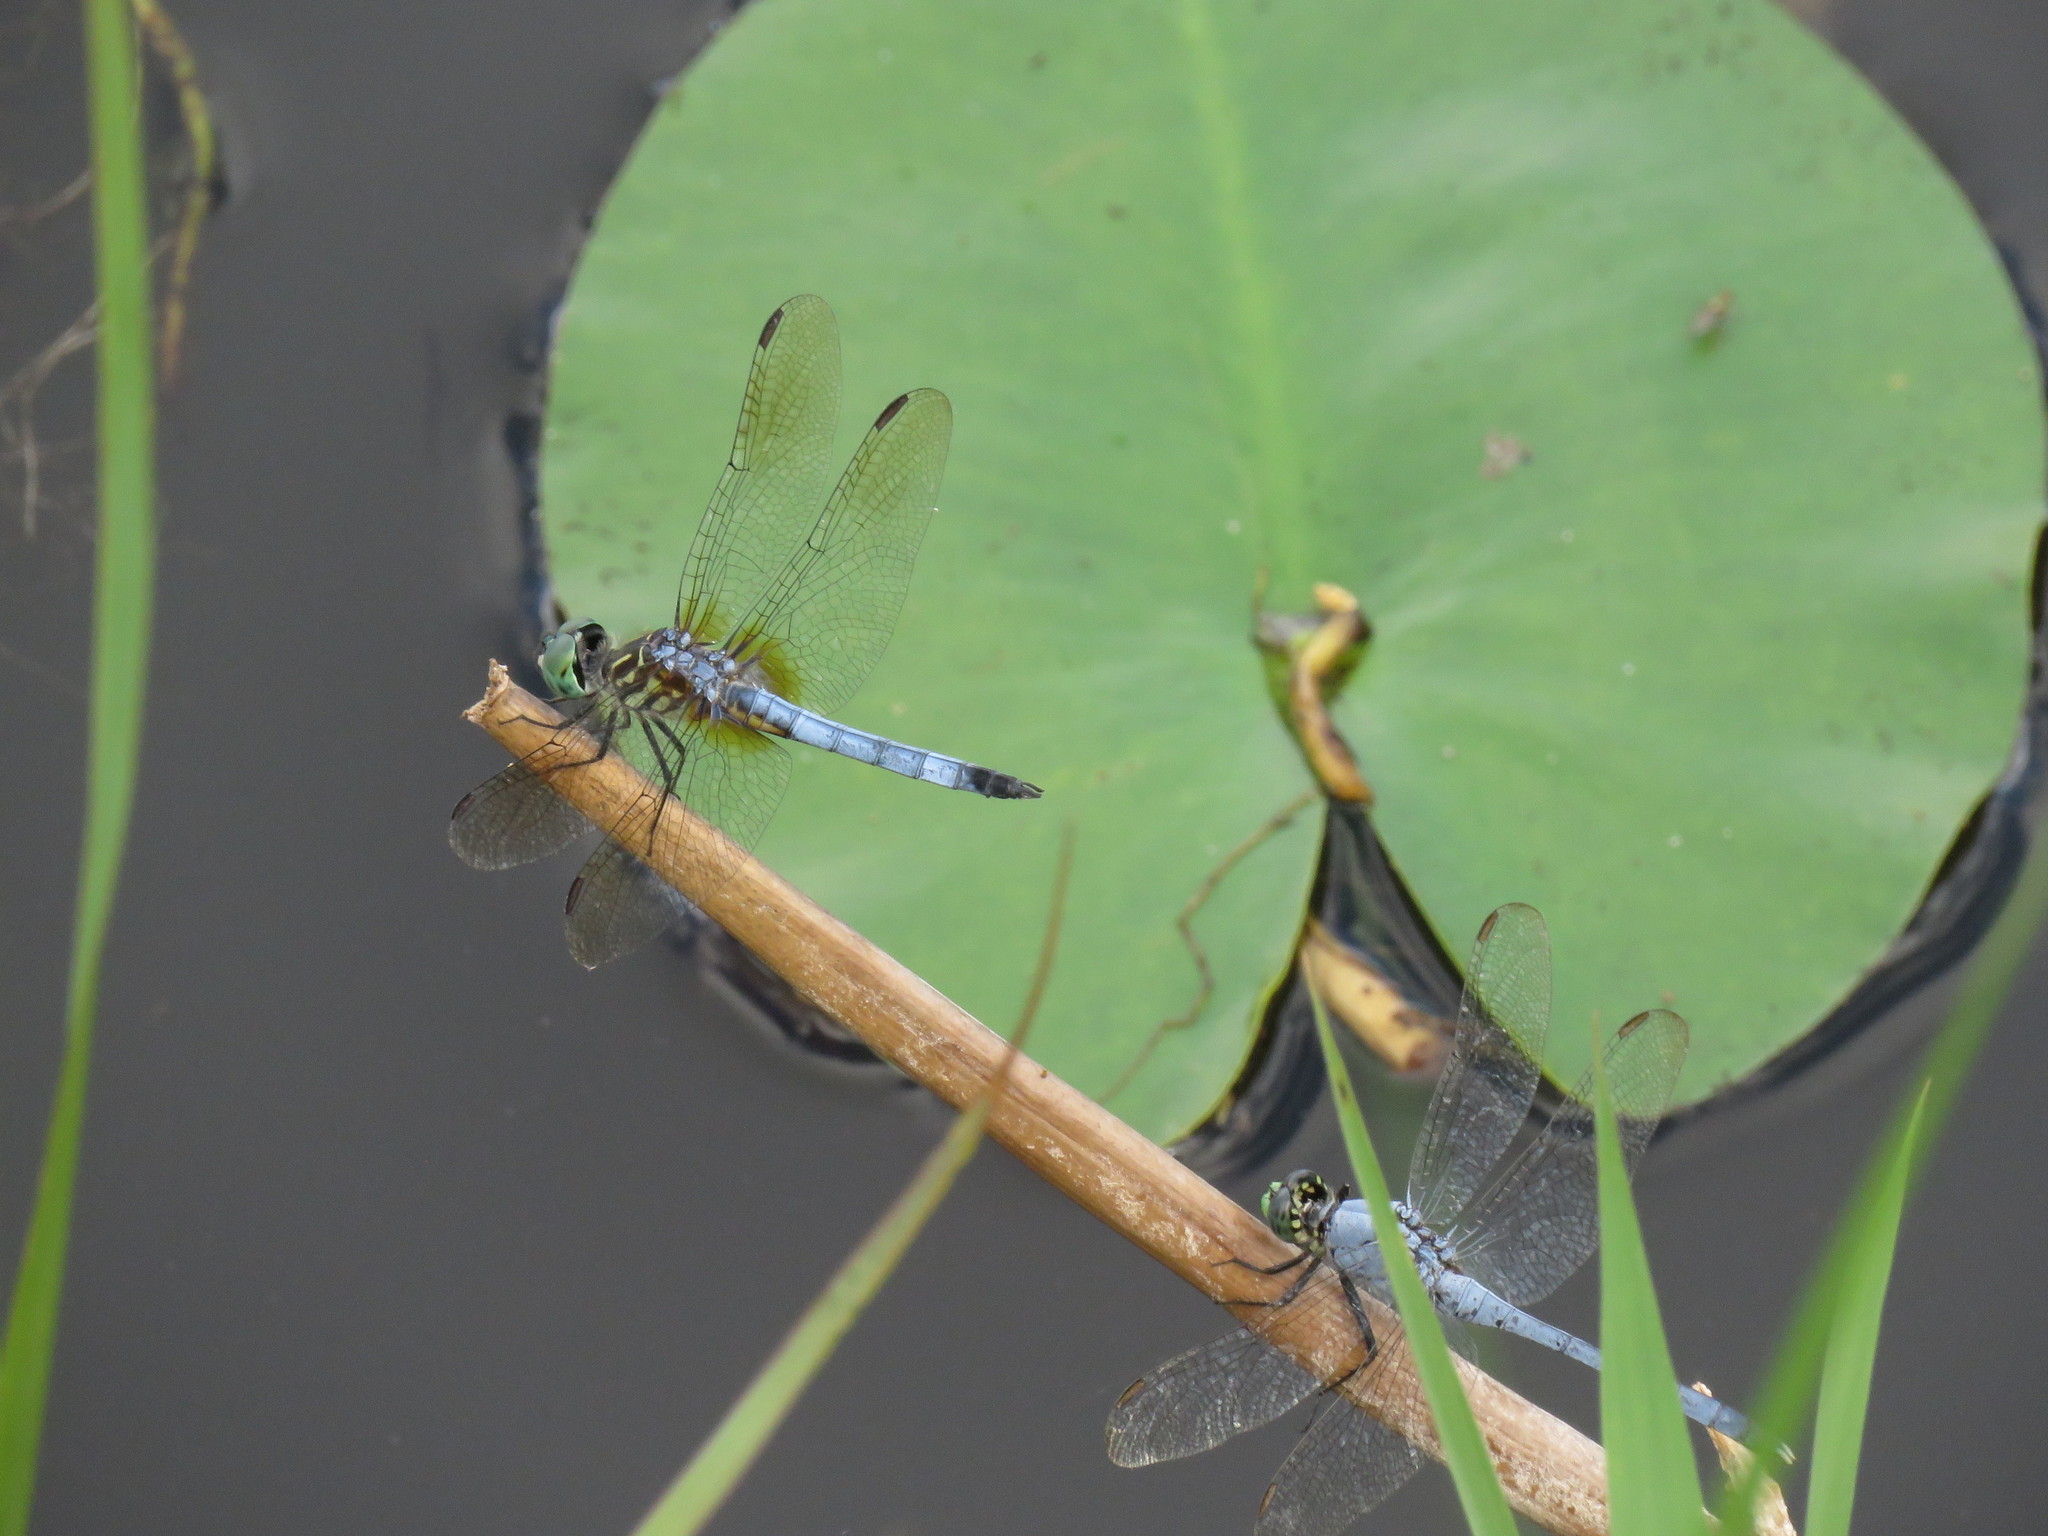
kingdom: Animalia
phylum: Arthropoda
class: Insecta
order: Odonata
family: Libellulidae
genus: Pachydiplax
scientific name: Pachydiplax longipennis
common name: Blue dasher
